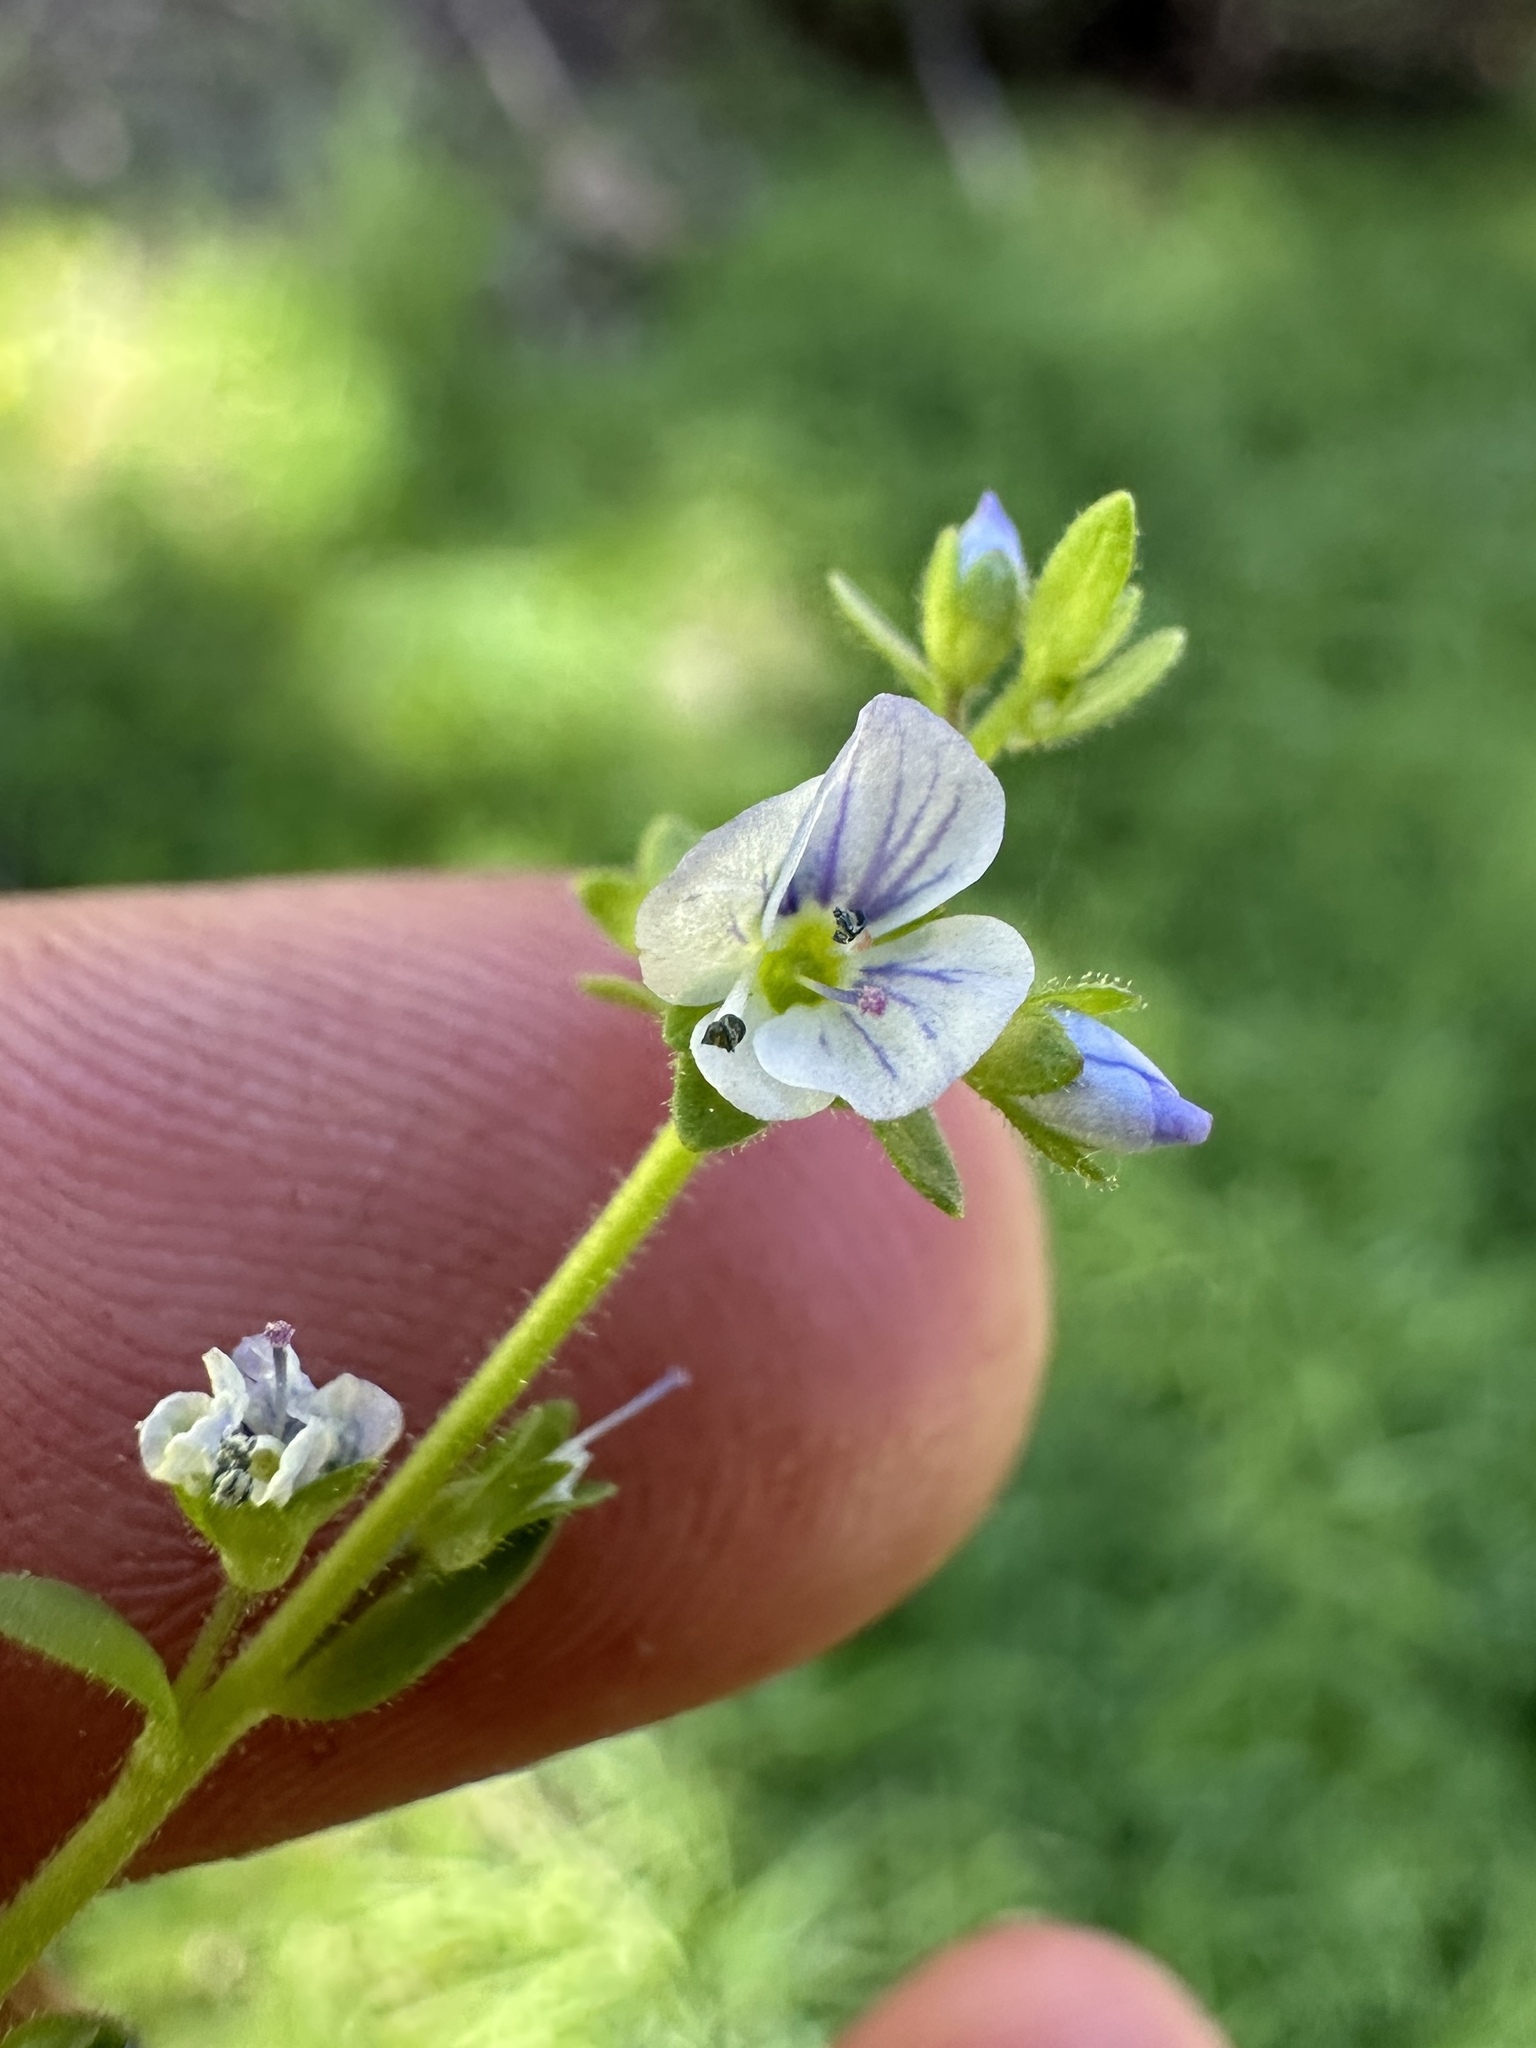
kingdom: Plantae
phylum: Tracheophyta
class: Magnoliopsida
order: Lamiales
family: Plantaginaceae
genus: Veronica
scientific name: Veronica serpyllifolia
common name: Thyme-leaved speedwell
